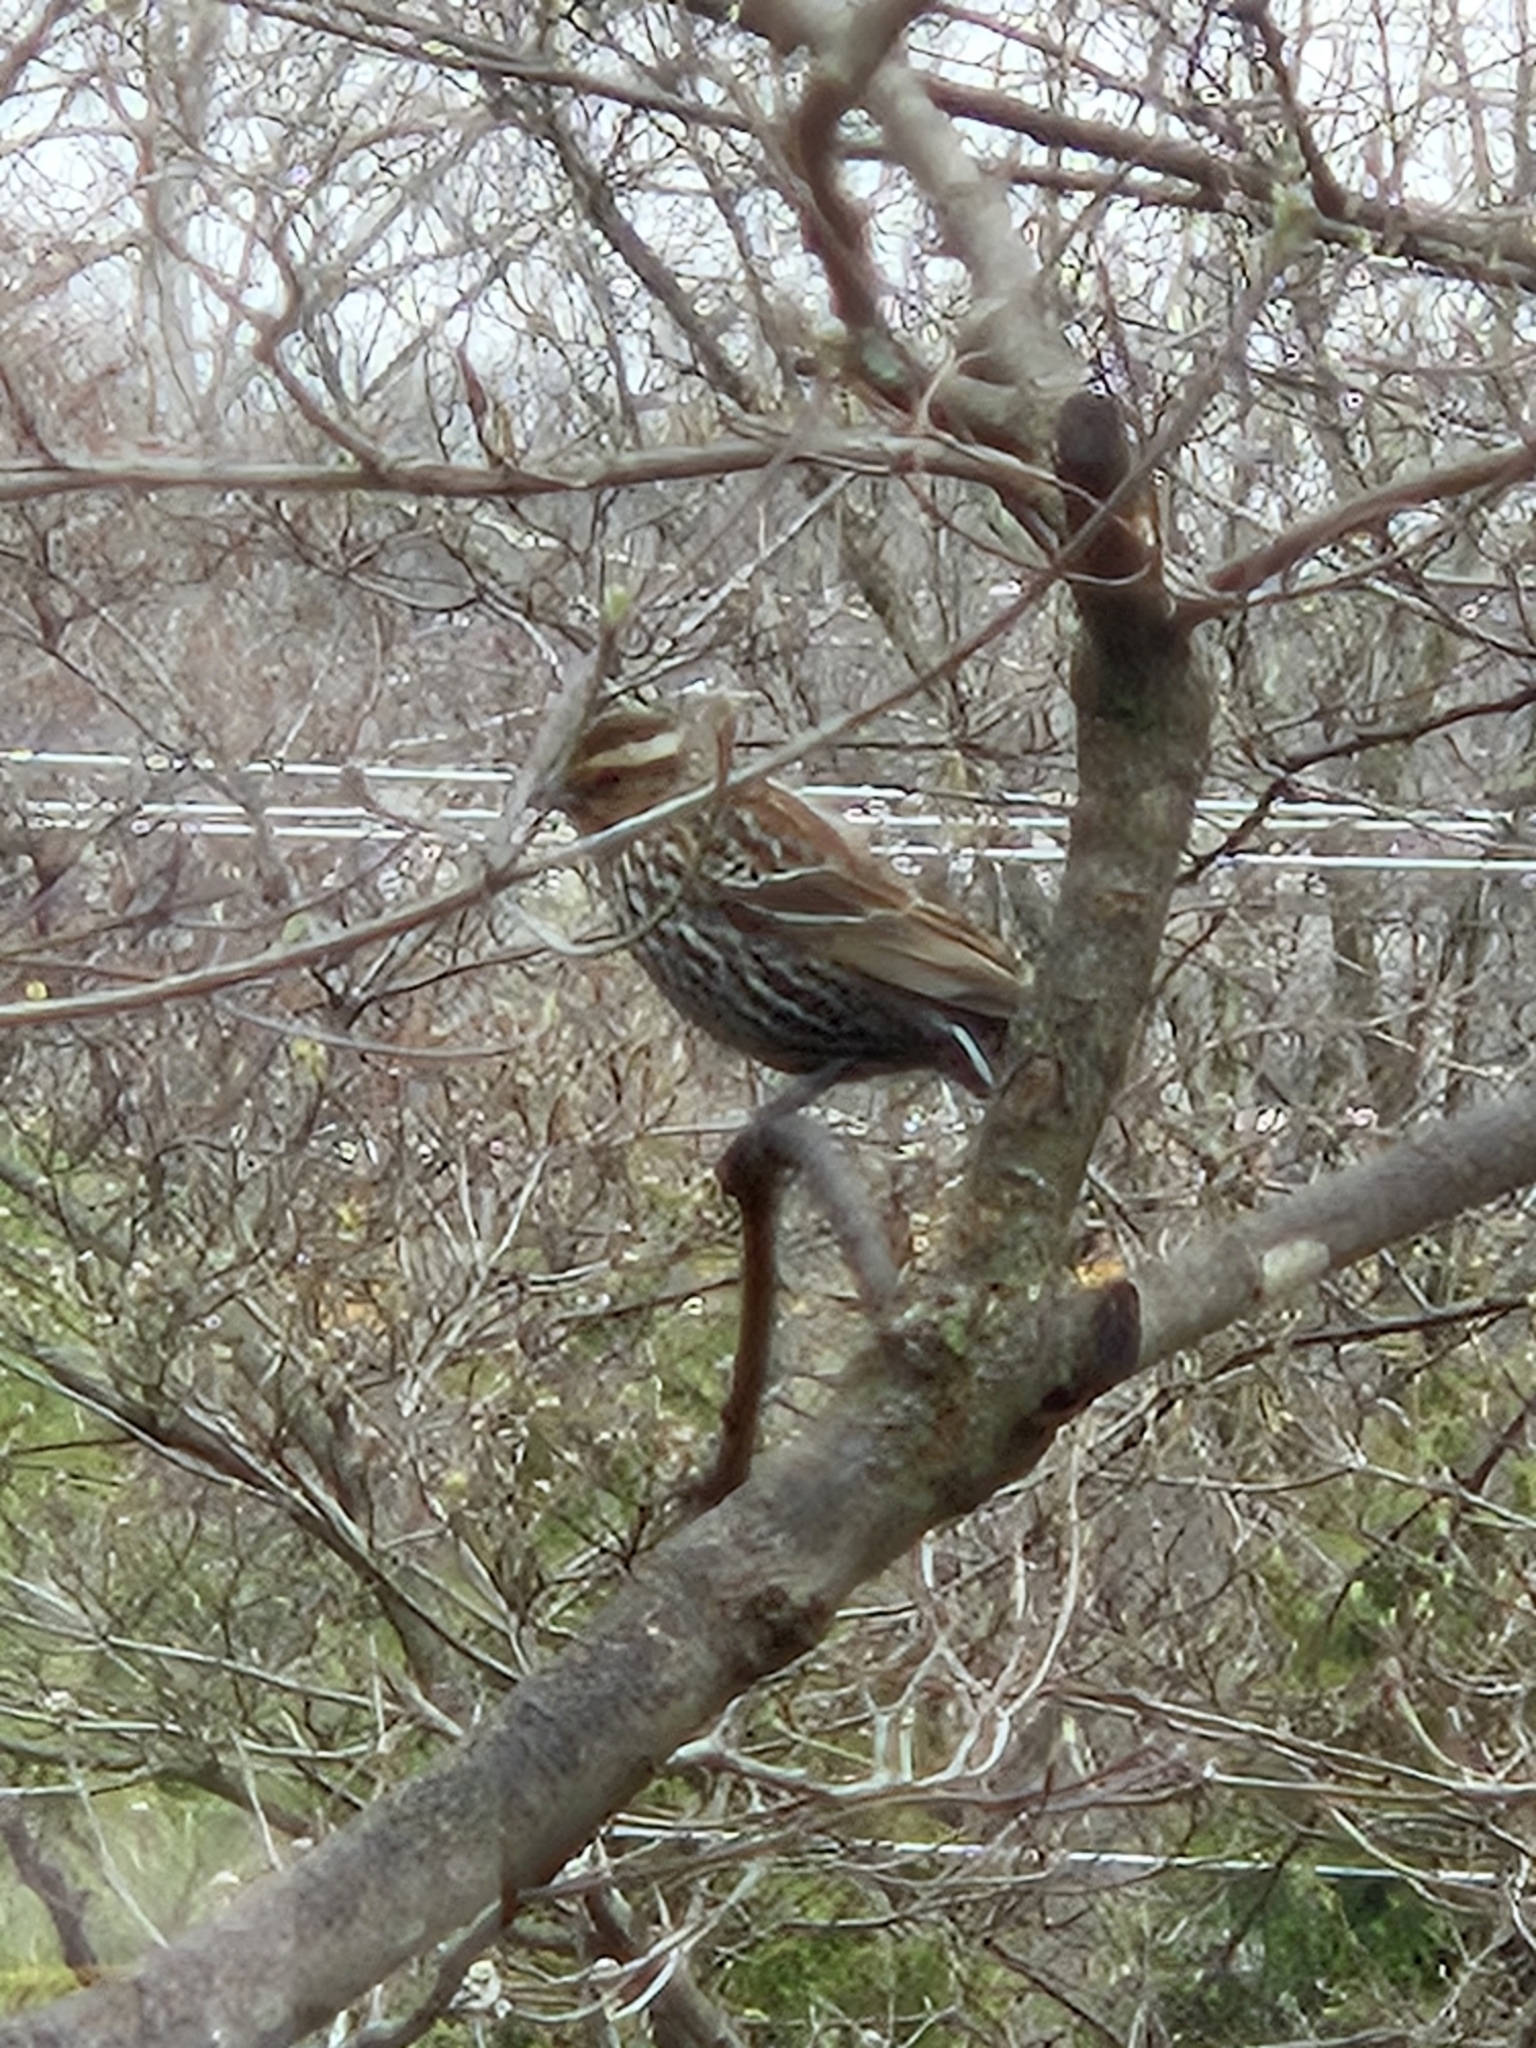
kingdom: Animalia
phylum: Chordata
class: Aves
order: Passeriformes
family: Icteridae
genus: Agelaius
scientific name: Agelaius phoeniceus
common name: Red-winged blackbird
